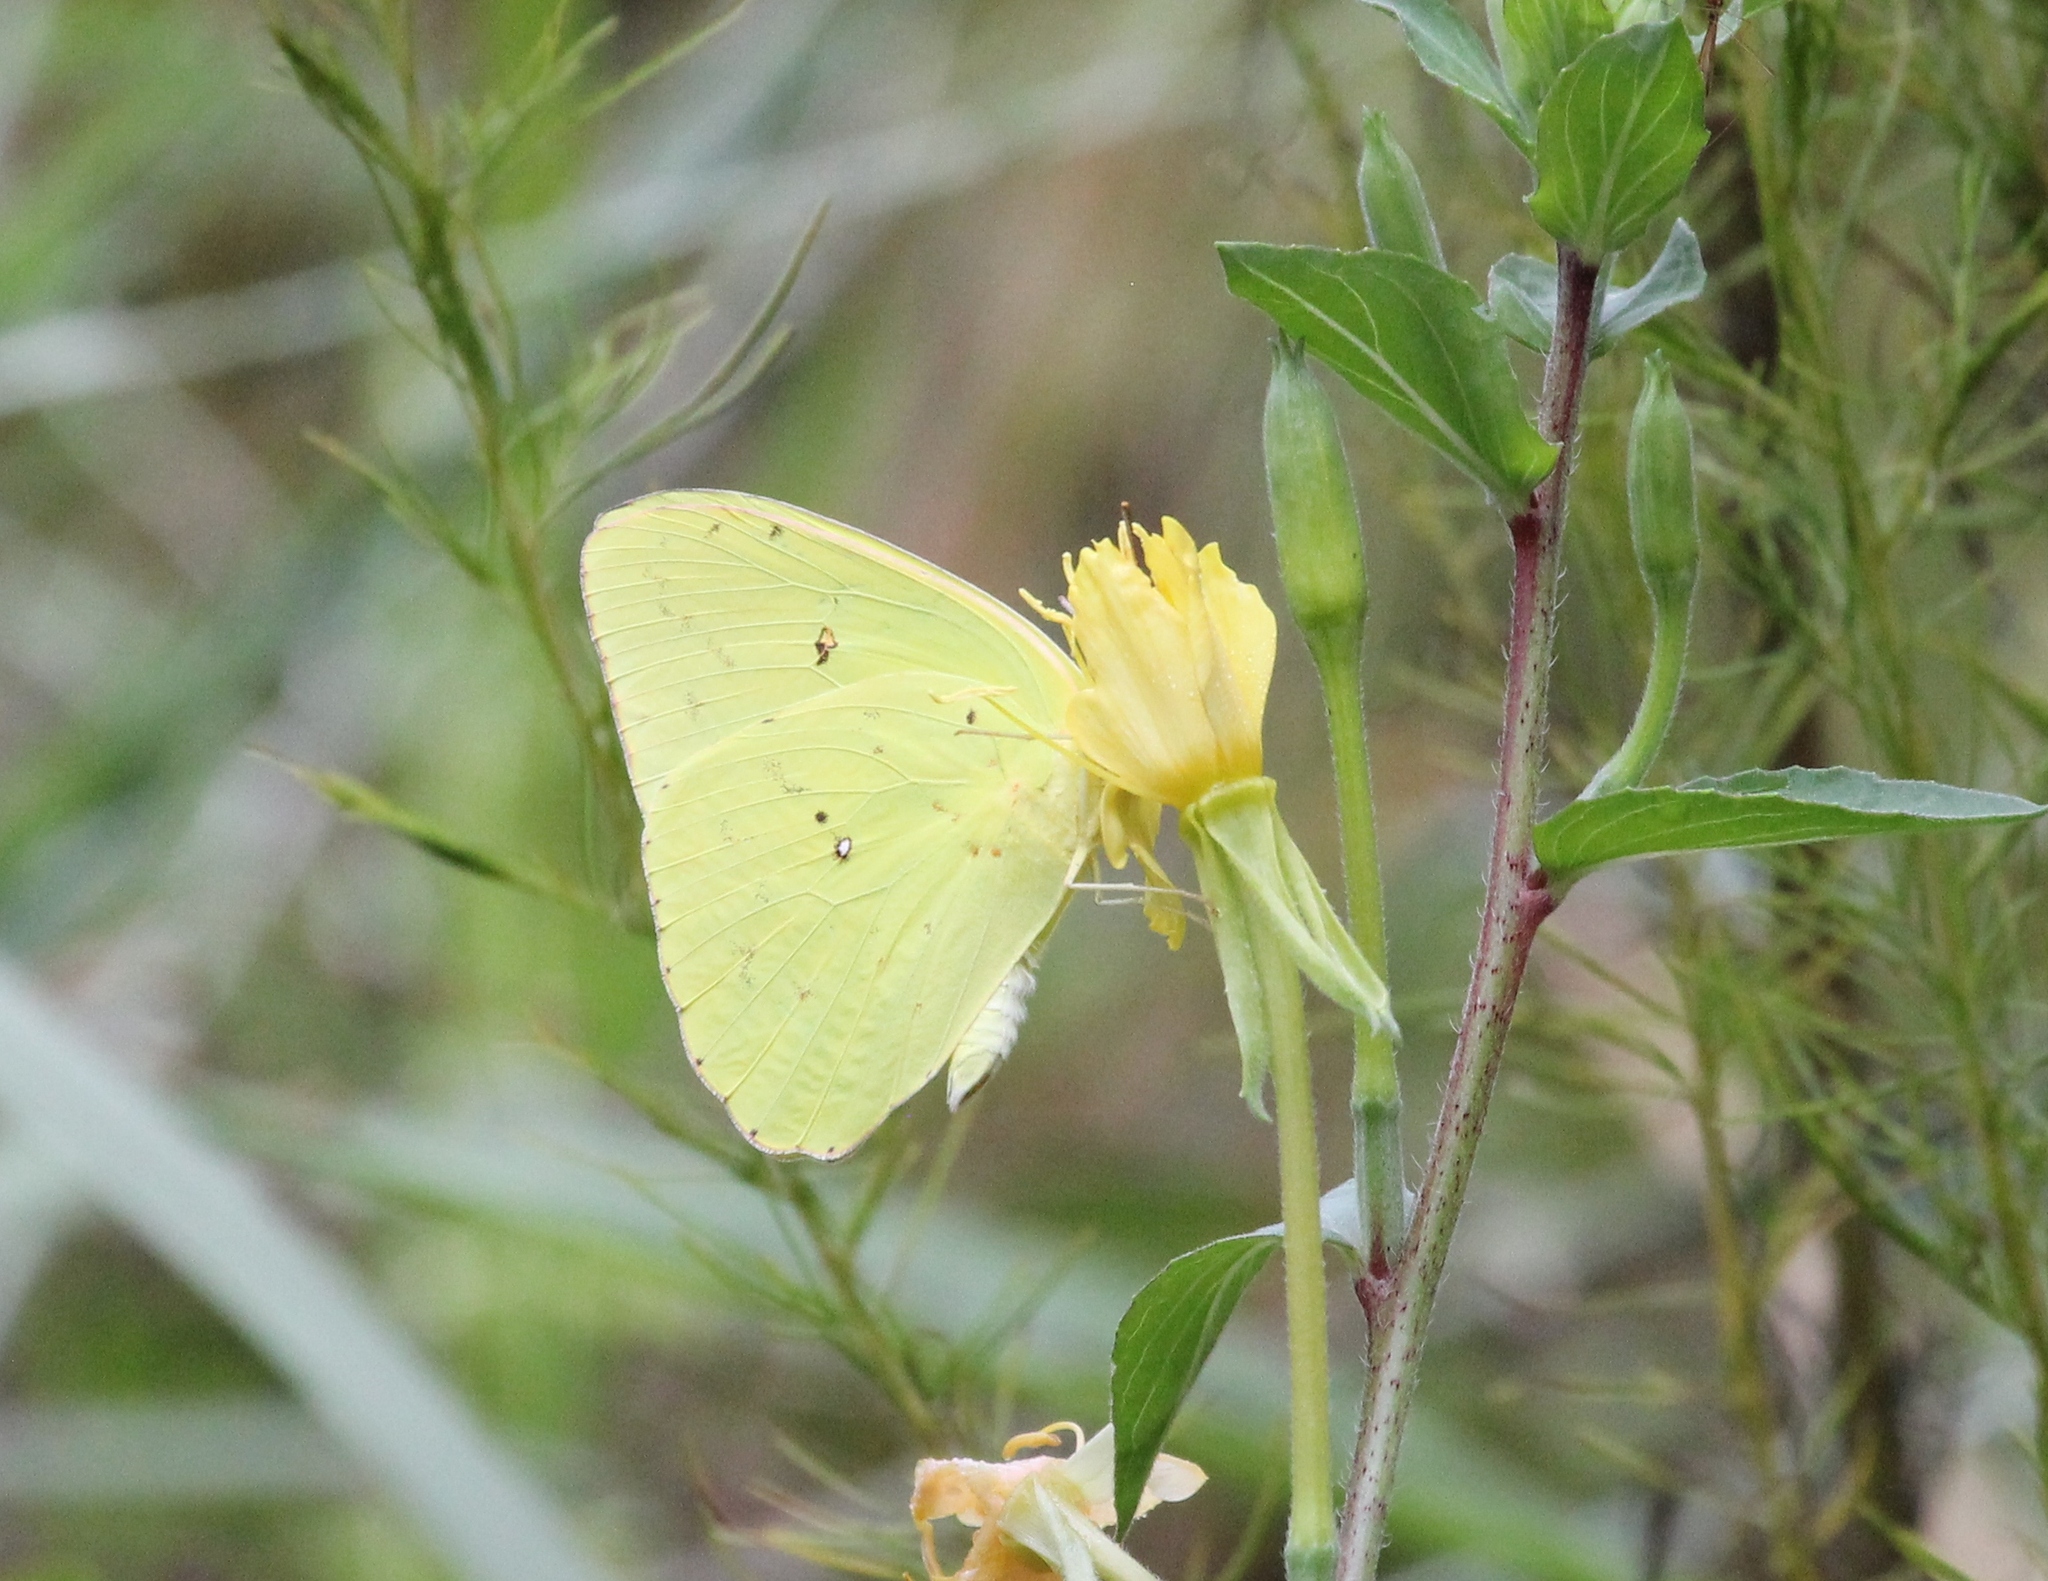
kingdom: Animalia
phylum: Arthropoda
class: Insecta
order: Lepidoptera
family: Pieridae
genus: Phoebis
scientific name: Phoebis sennae
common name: Cloudless sulphur
